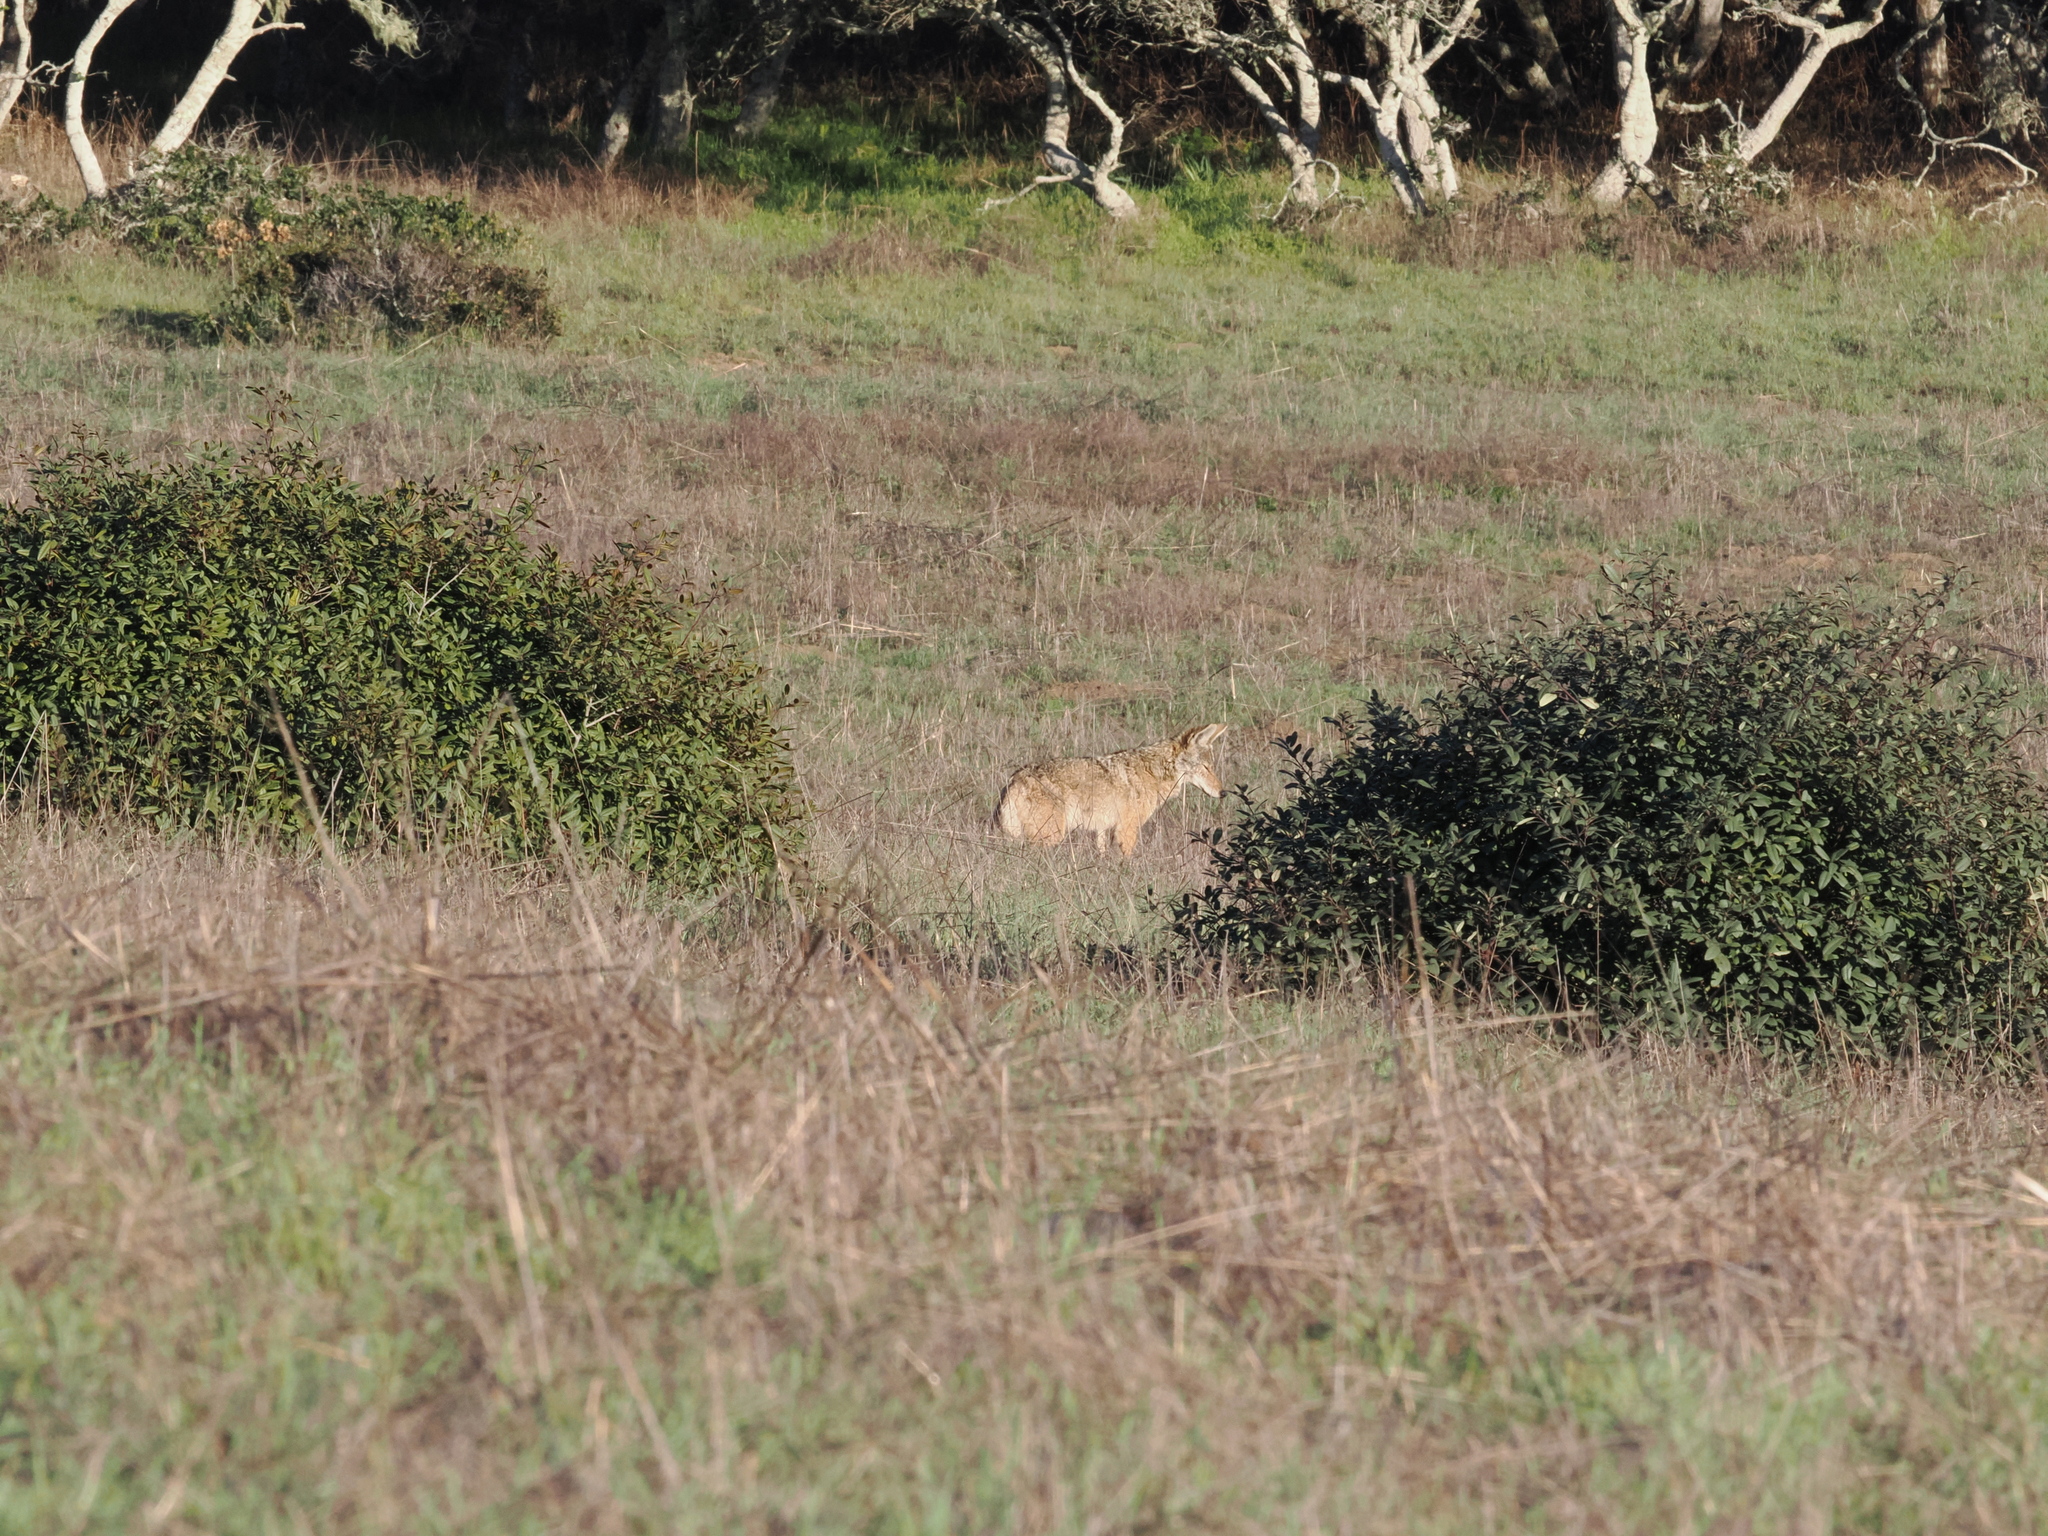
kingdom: Animalia
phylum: Chordata
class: Mammalia
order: Carnivora
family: Canidae
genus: Canis
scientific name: Canis latrans
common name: Coyote
